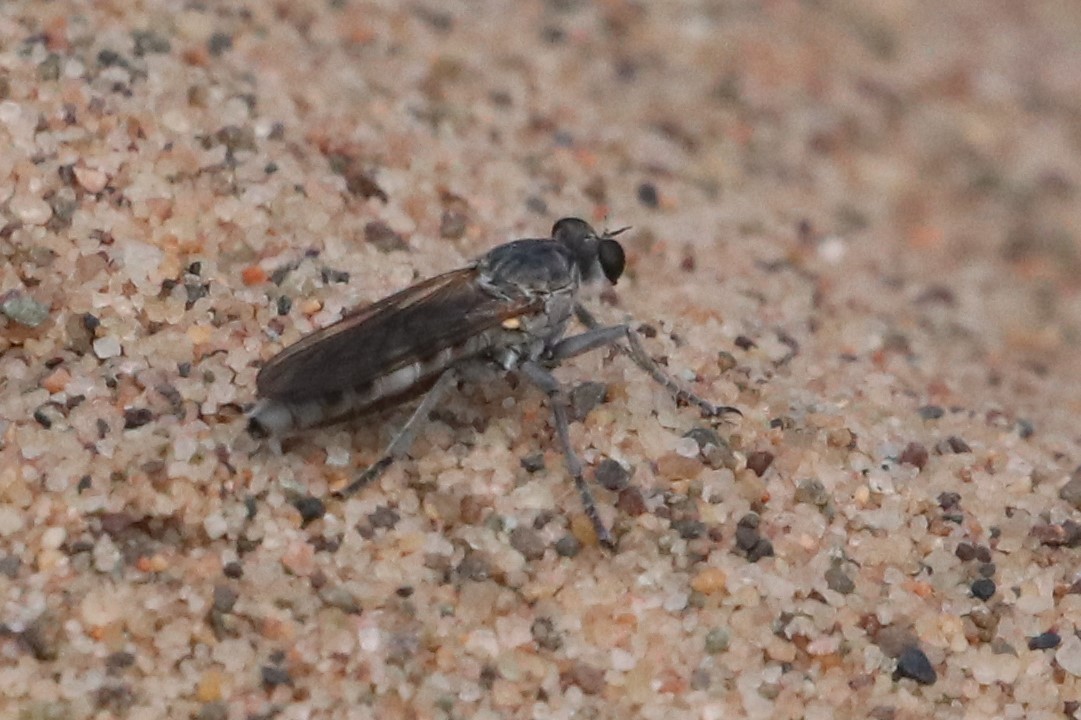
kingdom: Animalia
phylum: Arthropoda
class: Insecta
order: Diptera
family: Asilidae
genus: Stichopogon
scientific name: Stichopogon trifasciatus
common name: Three-banded robber fly
